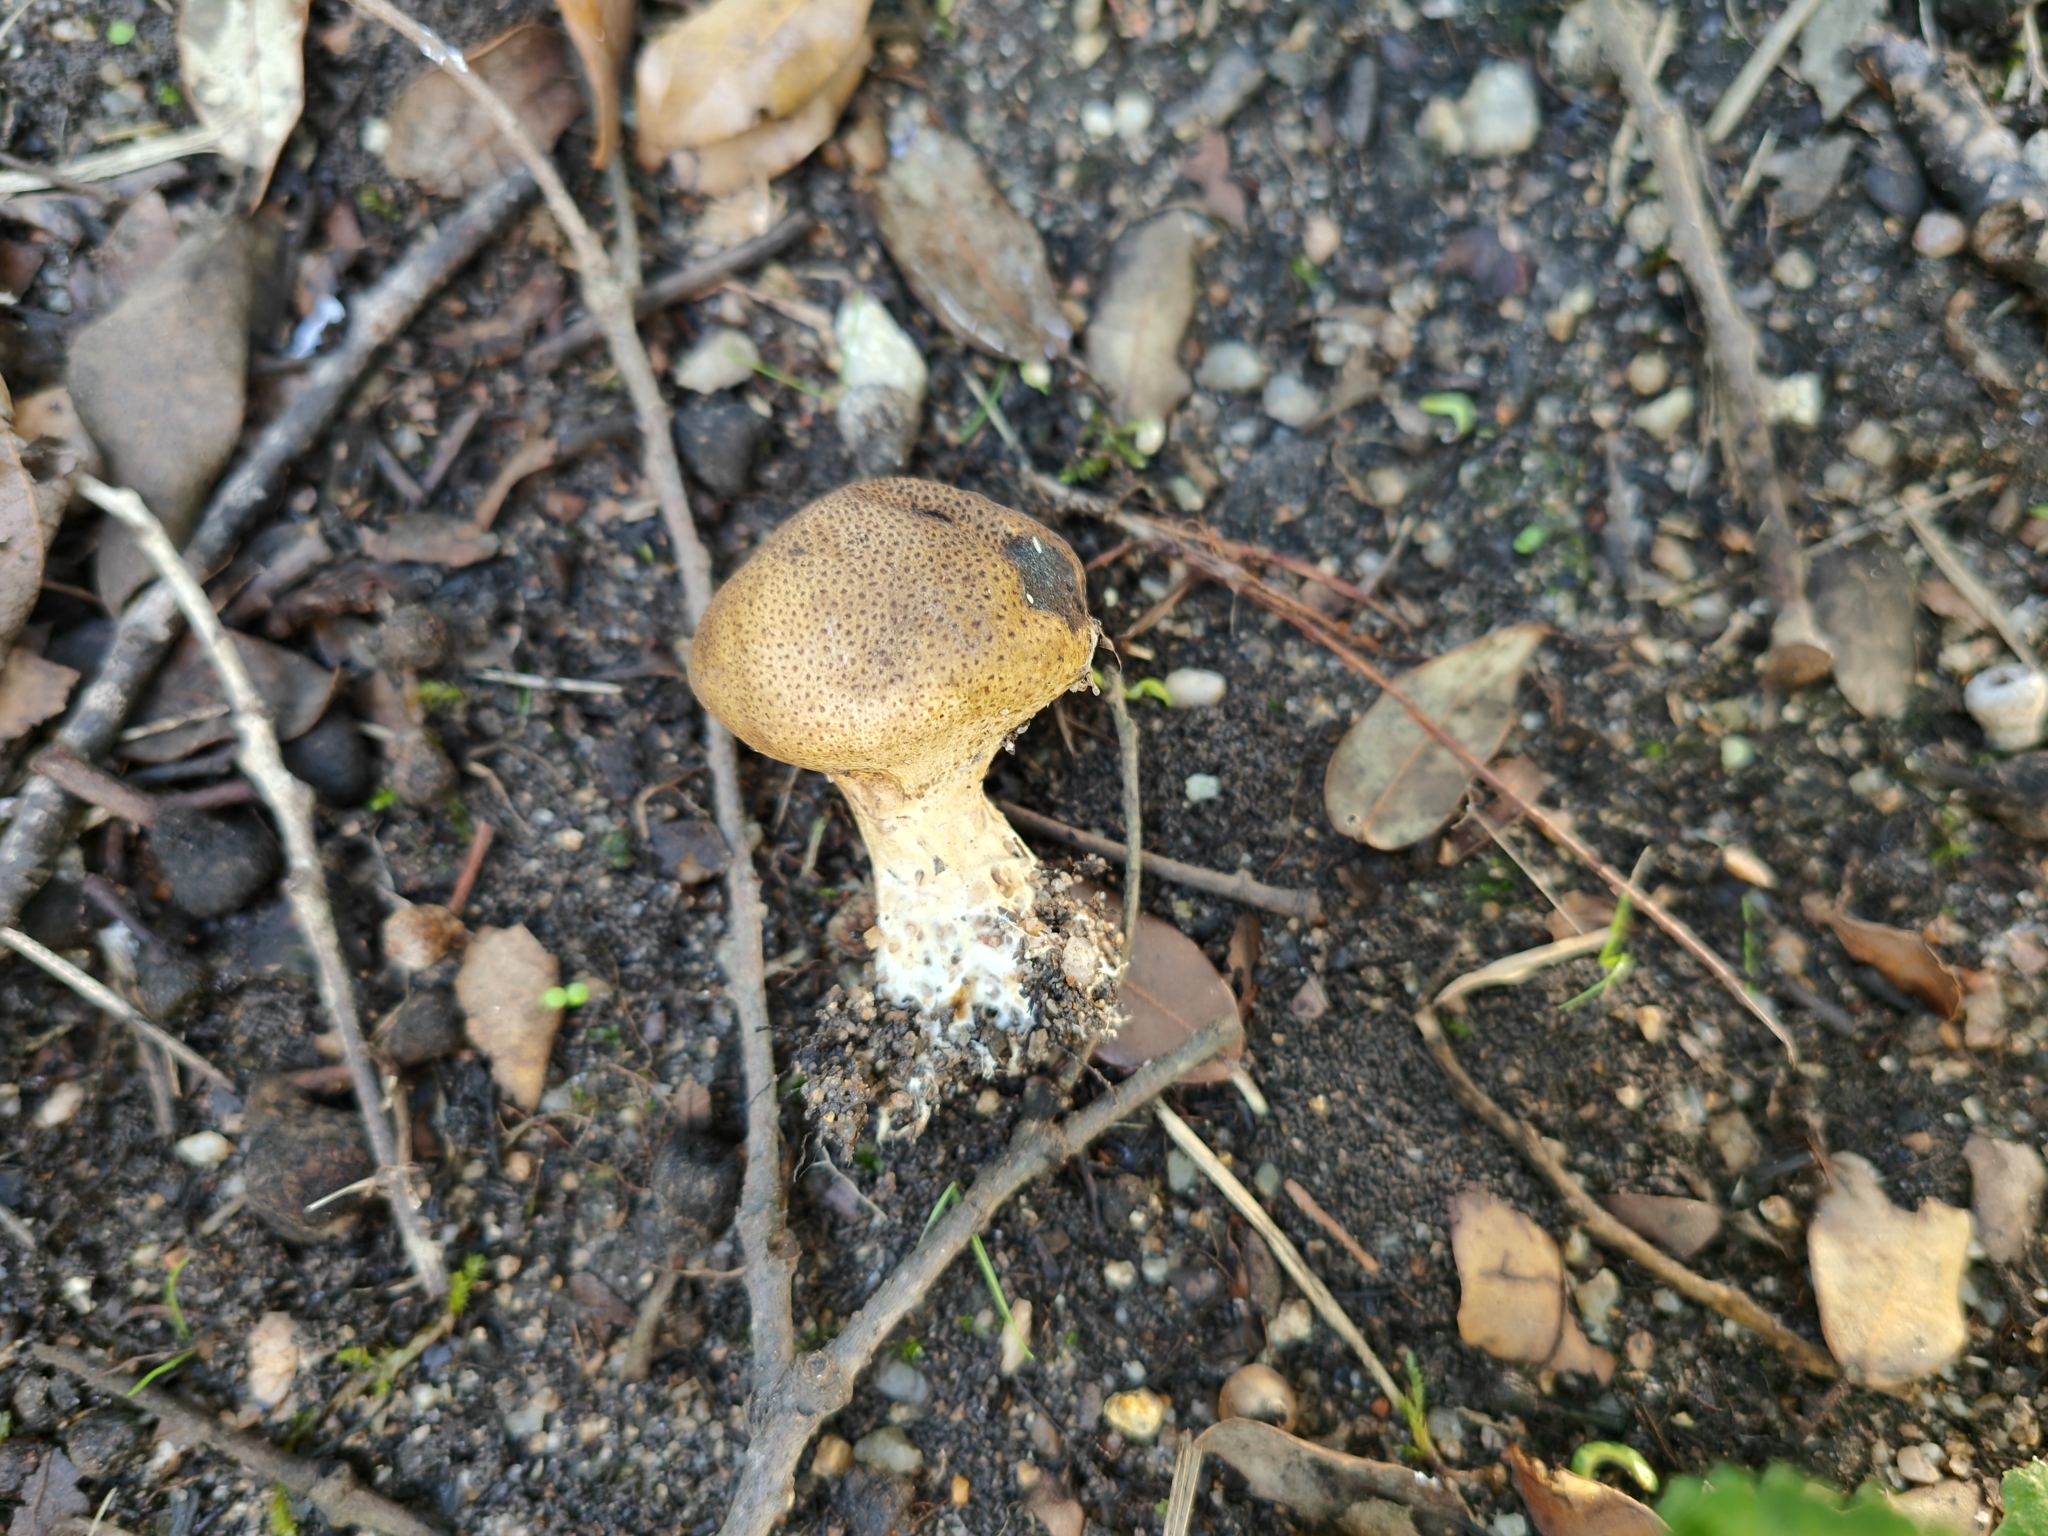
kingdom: Fungi
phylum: Basidiomycota
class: Agaricomycetes
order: Boletales
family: Sclerodermataceae
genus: Scleroderma
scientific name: Scleroderma verrucosum
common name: Scaly earthball
